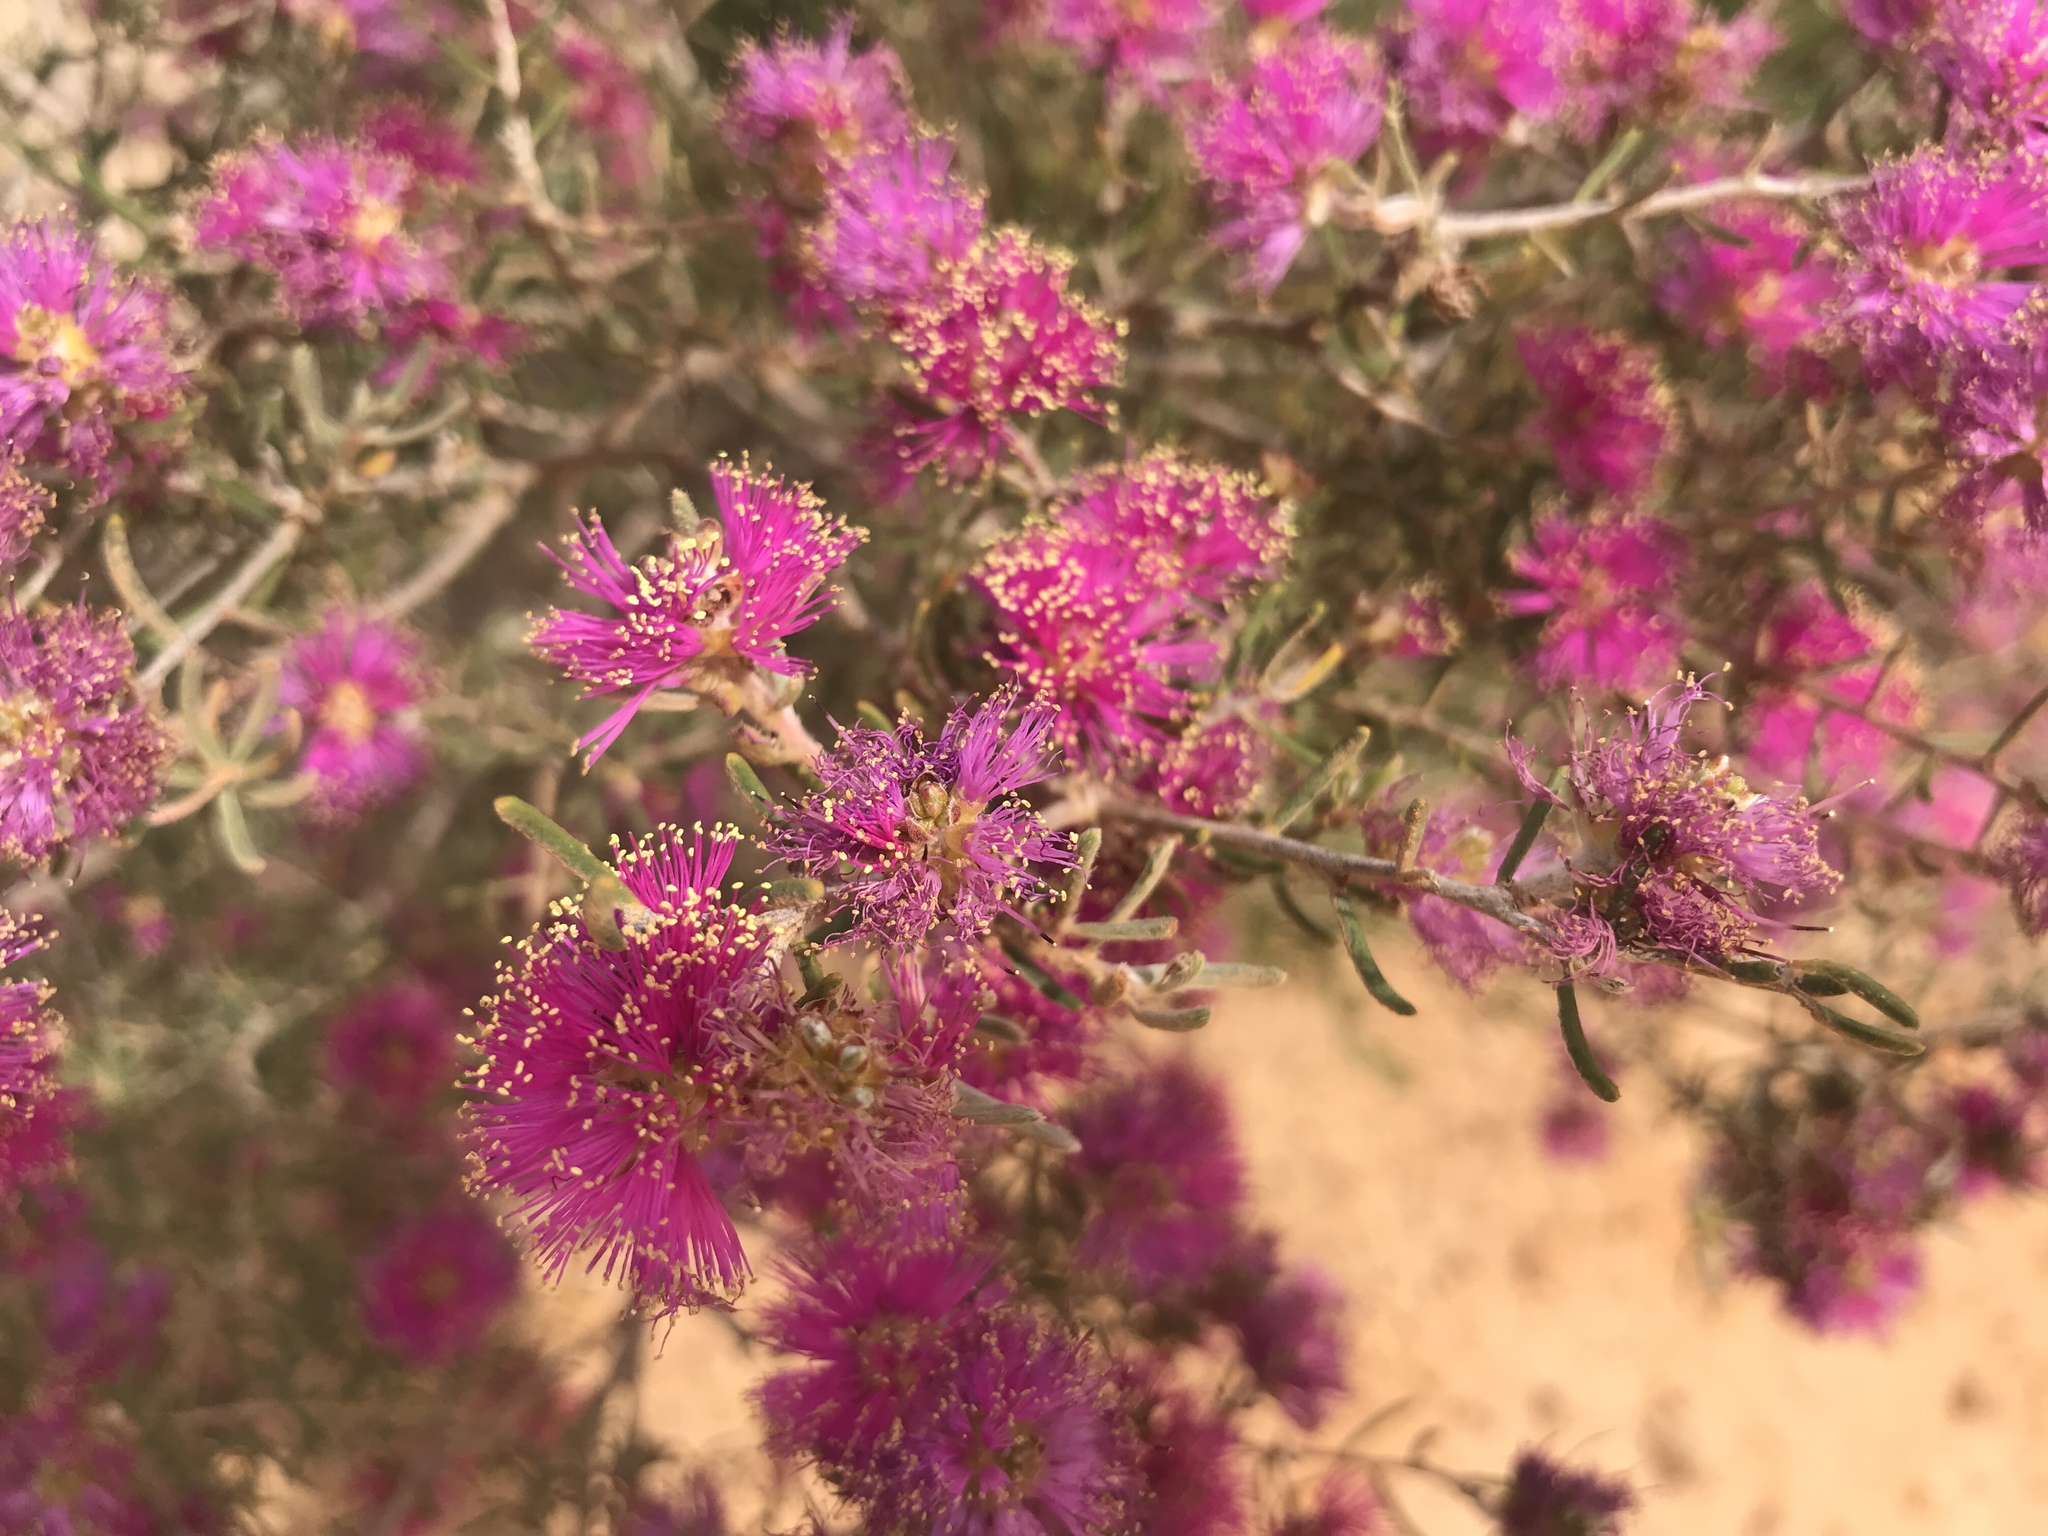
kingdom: Plantae
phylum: Tracheophyta
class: Magnoliopsida
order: Myrtales
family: Myrtaceae
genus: Melaleuca
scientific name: Melaleuca subtrigona
